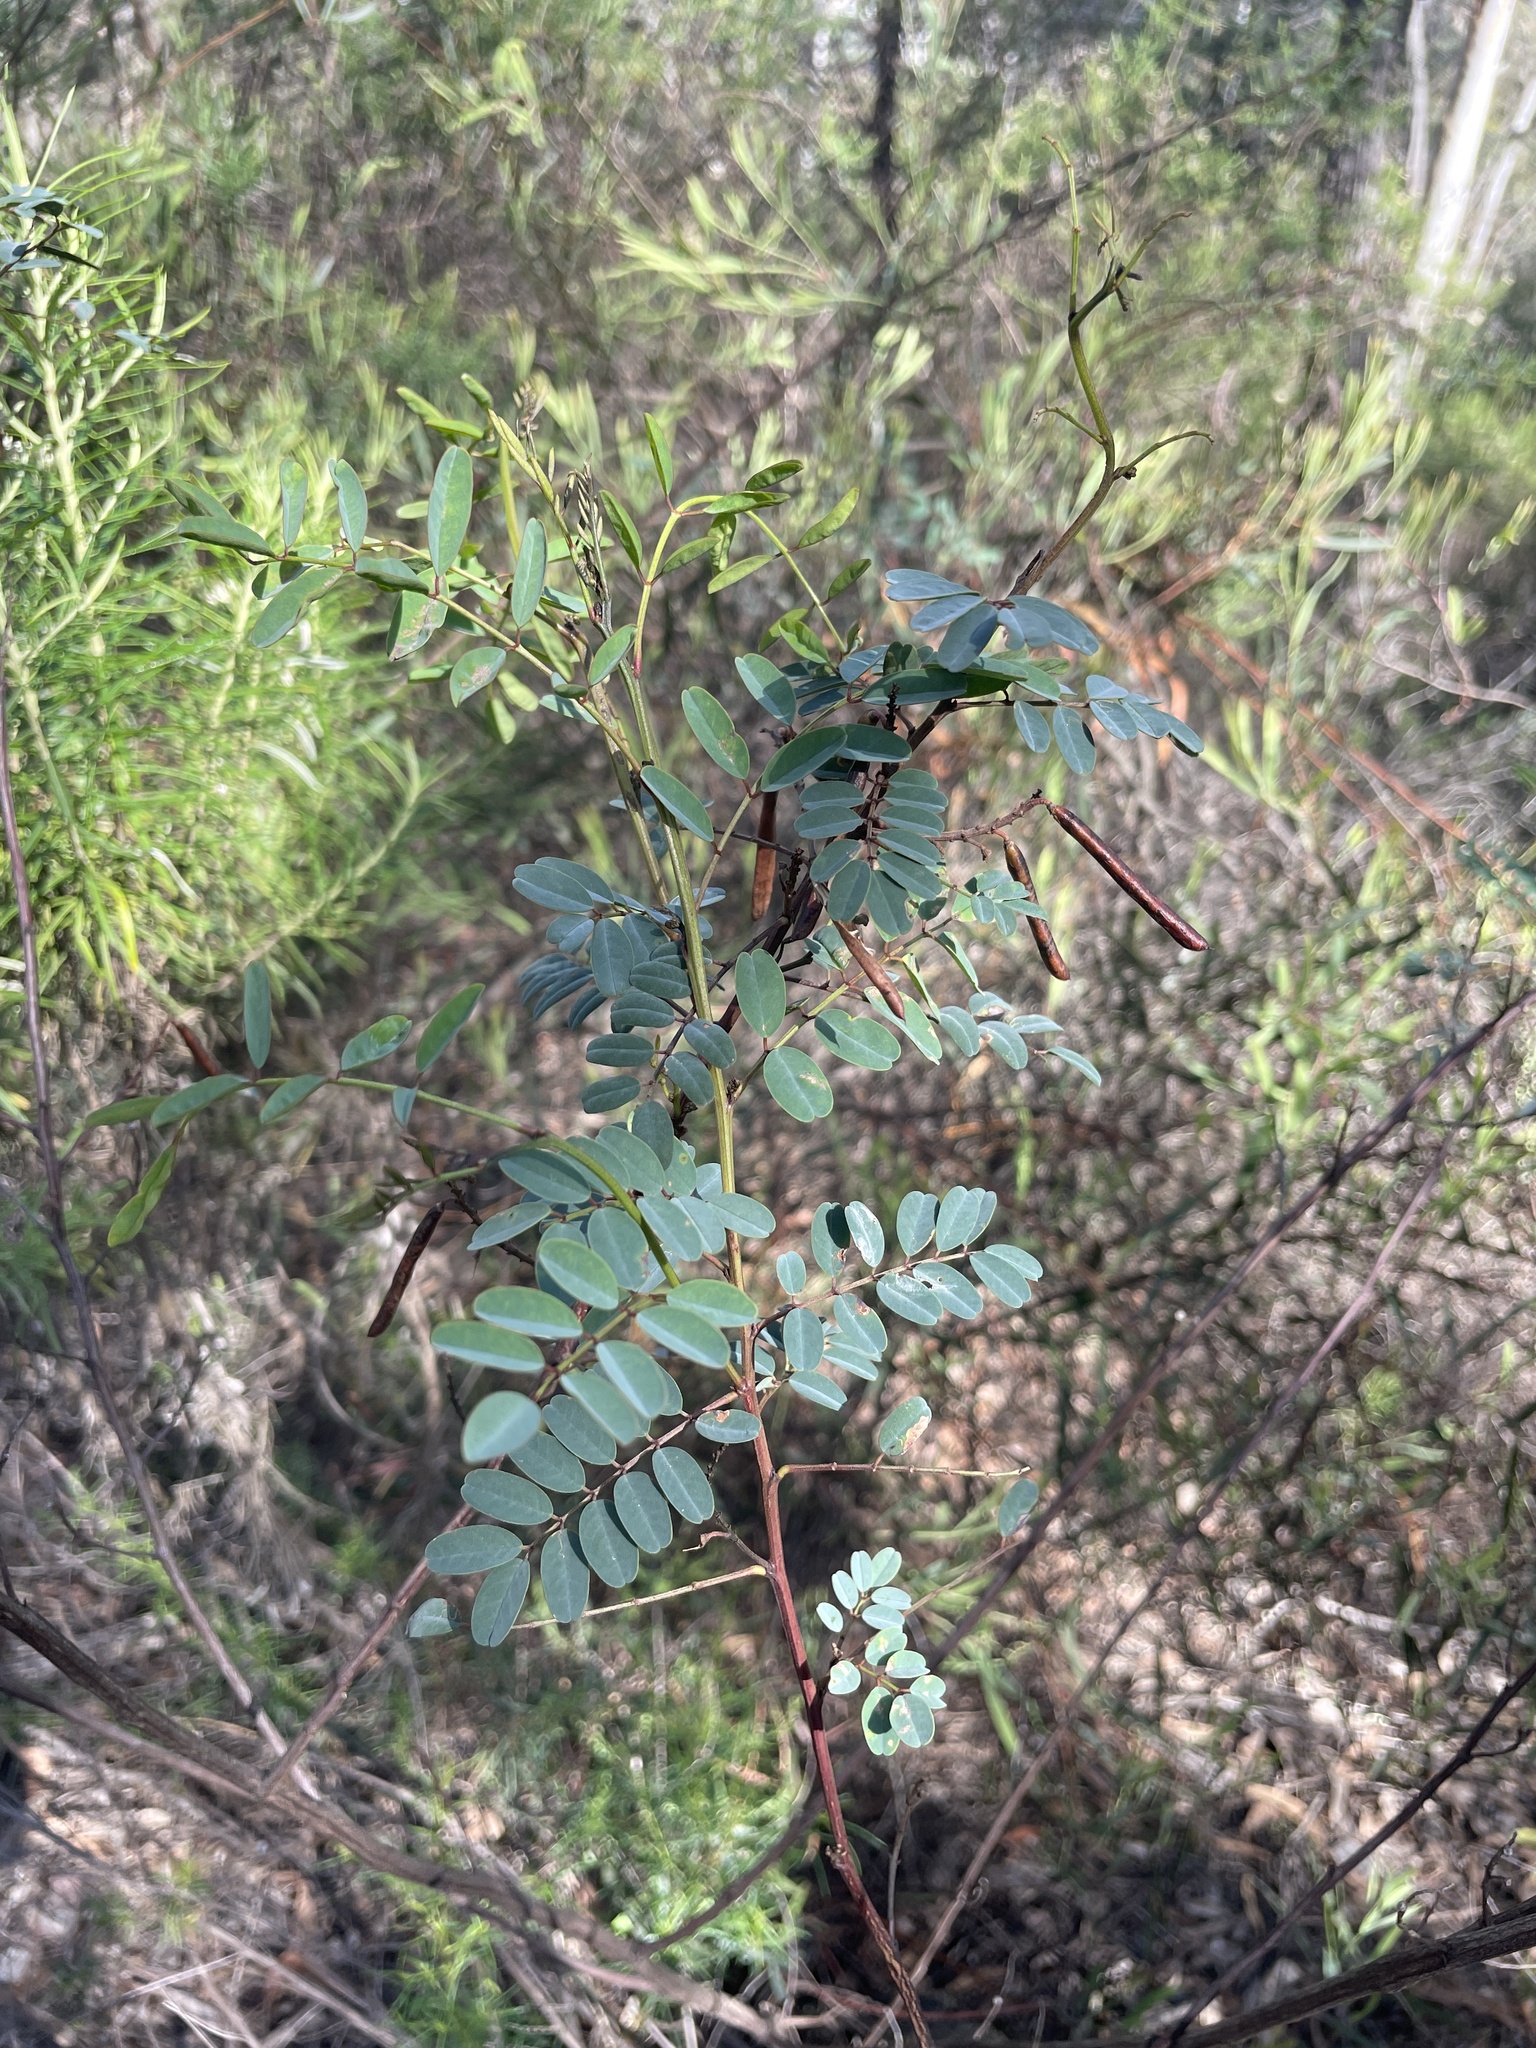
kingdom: Plantae
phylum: Tracheophyta
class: Magnoliopsida
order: Fabales
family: Fabaceae
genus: Indigofera
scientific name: Indigofera australis
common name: Australian indigo
